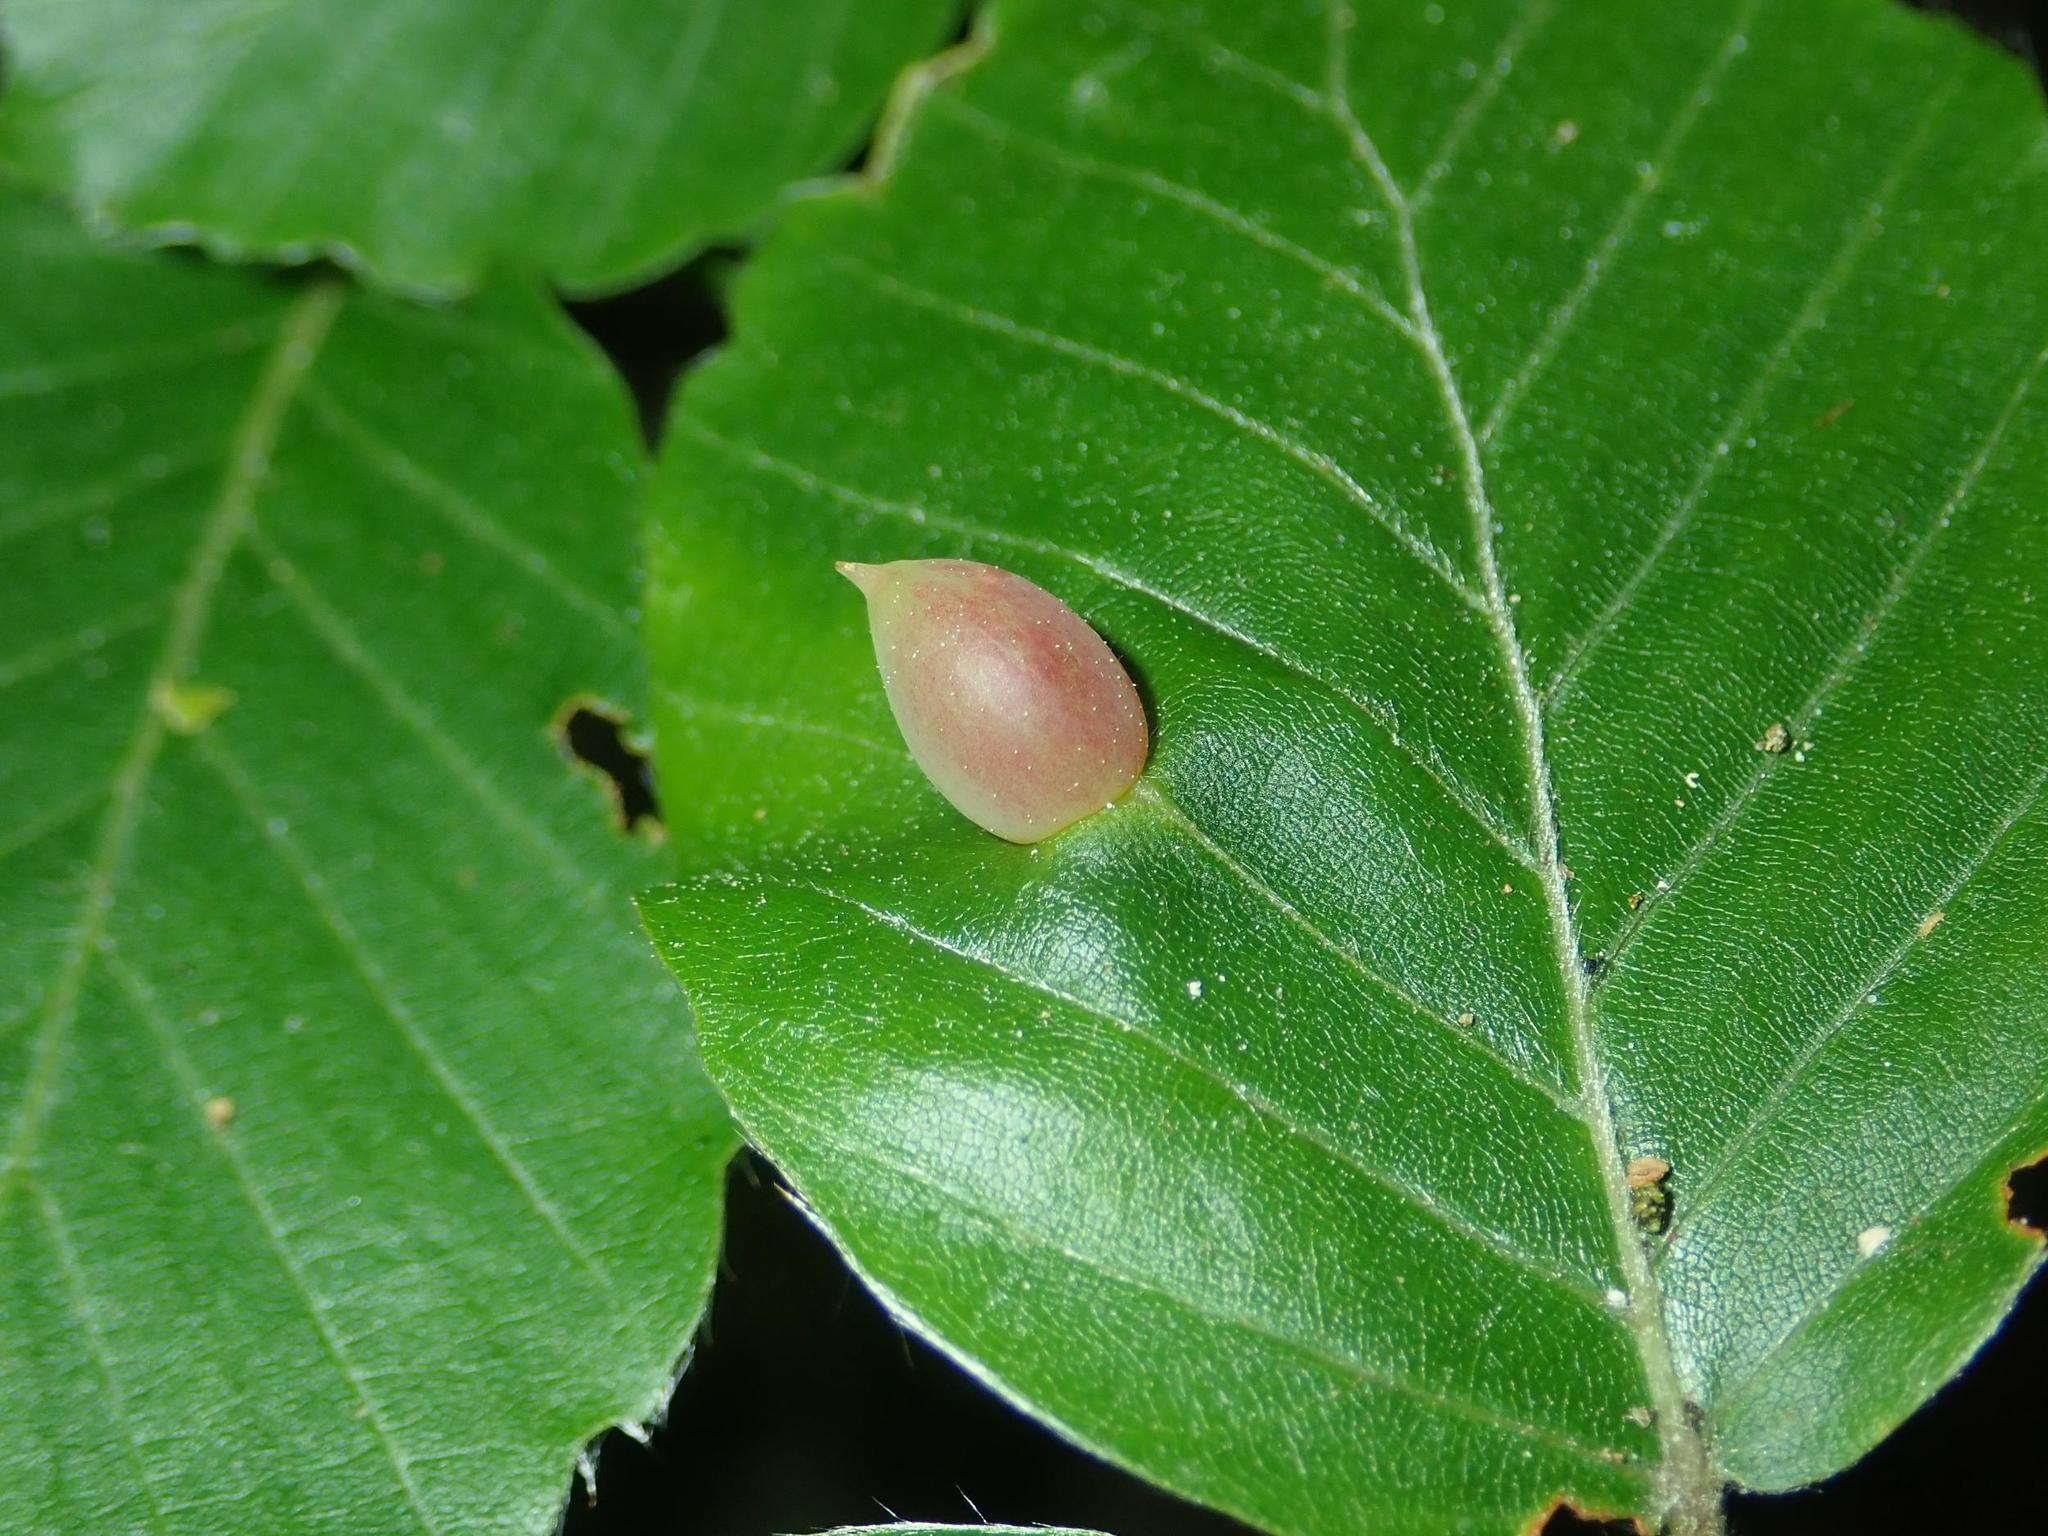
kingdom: Animalia
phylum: Arthropoda
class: Insecta
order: Diptera
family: Cecidomyiidae
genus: Mikiola
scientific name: Mikiola fagi
